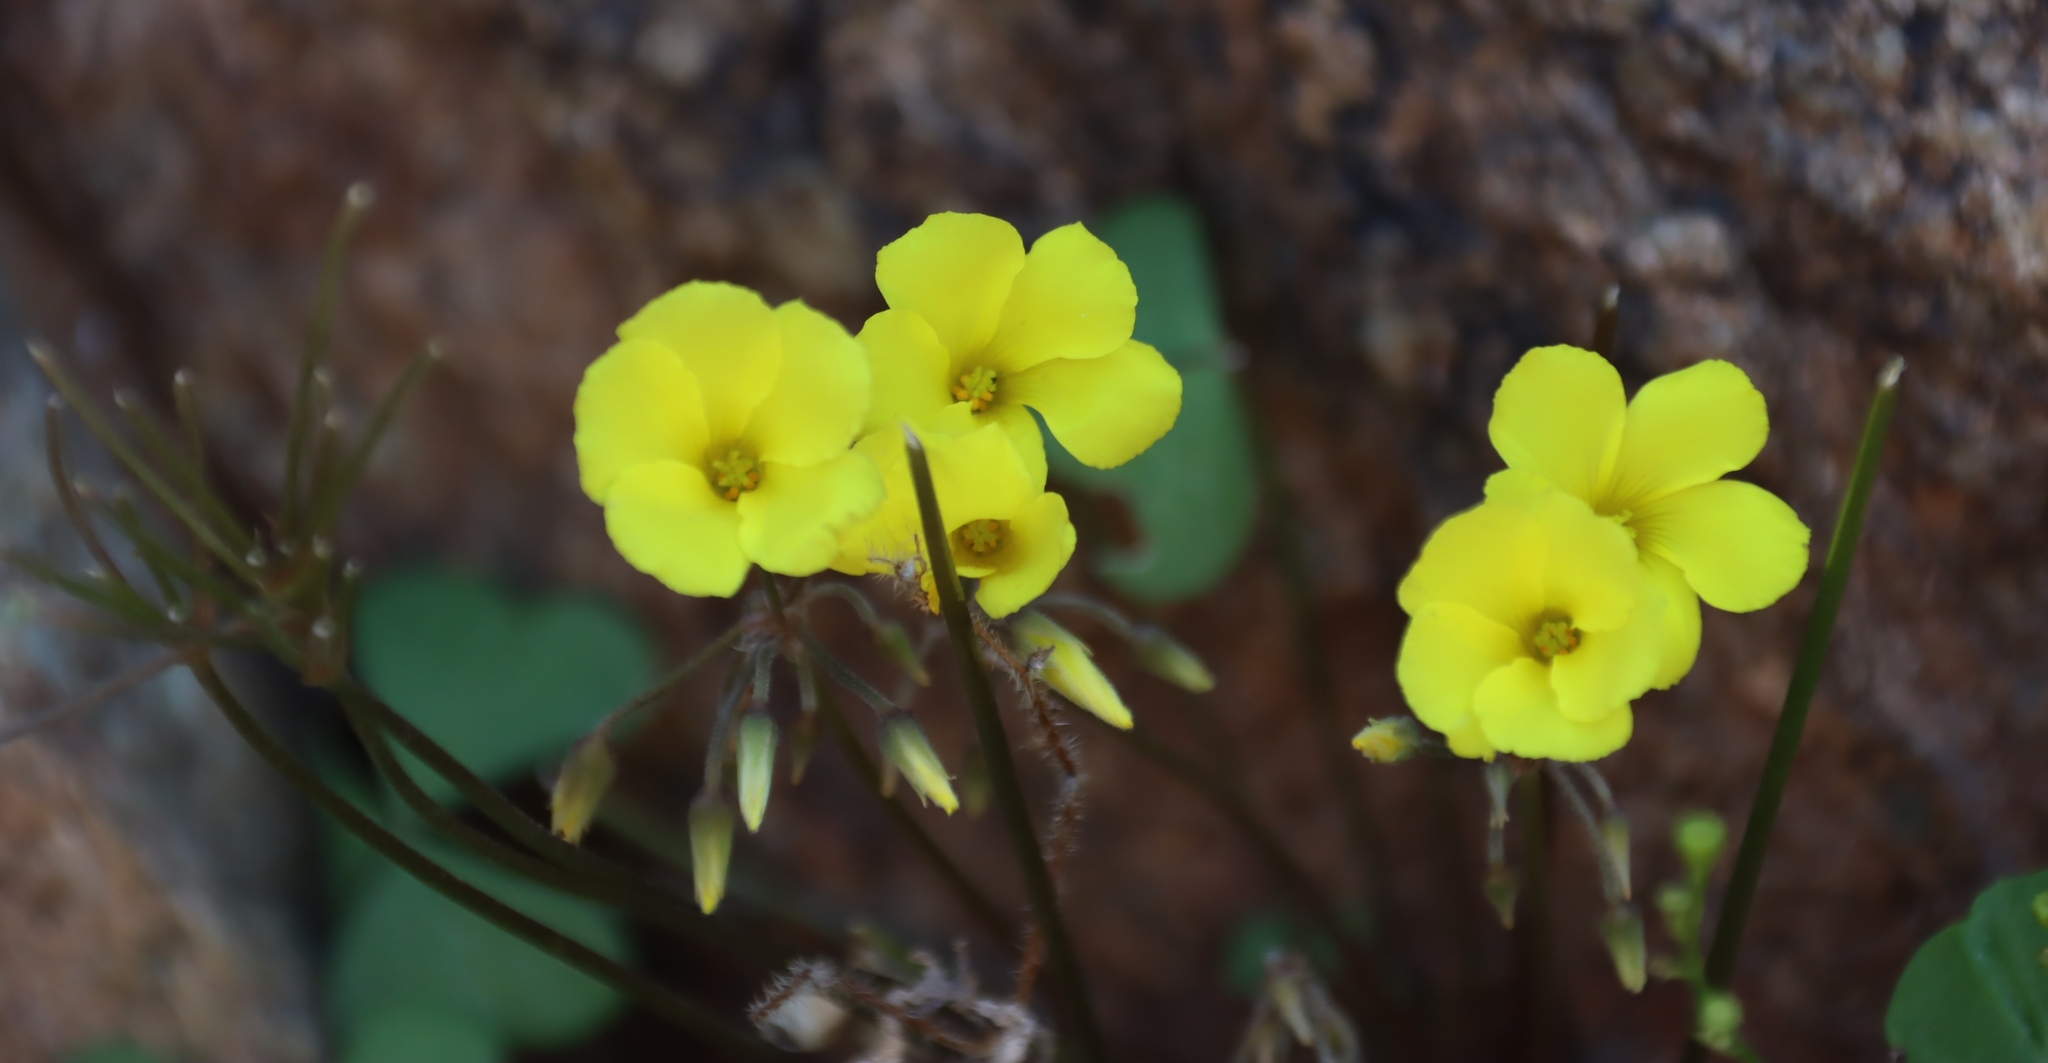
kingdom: Plantae
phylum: Tracheophyta
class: Magnoliopsida
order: Oxalidales
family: Oxalidaceae
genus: Oxalis
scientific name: Oxalis copiosa
